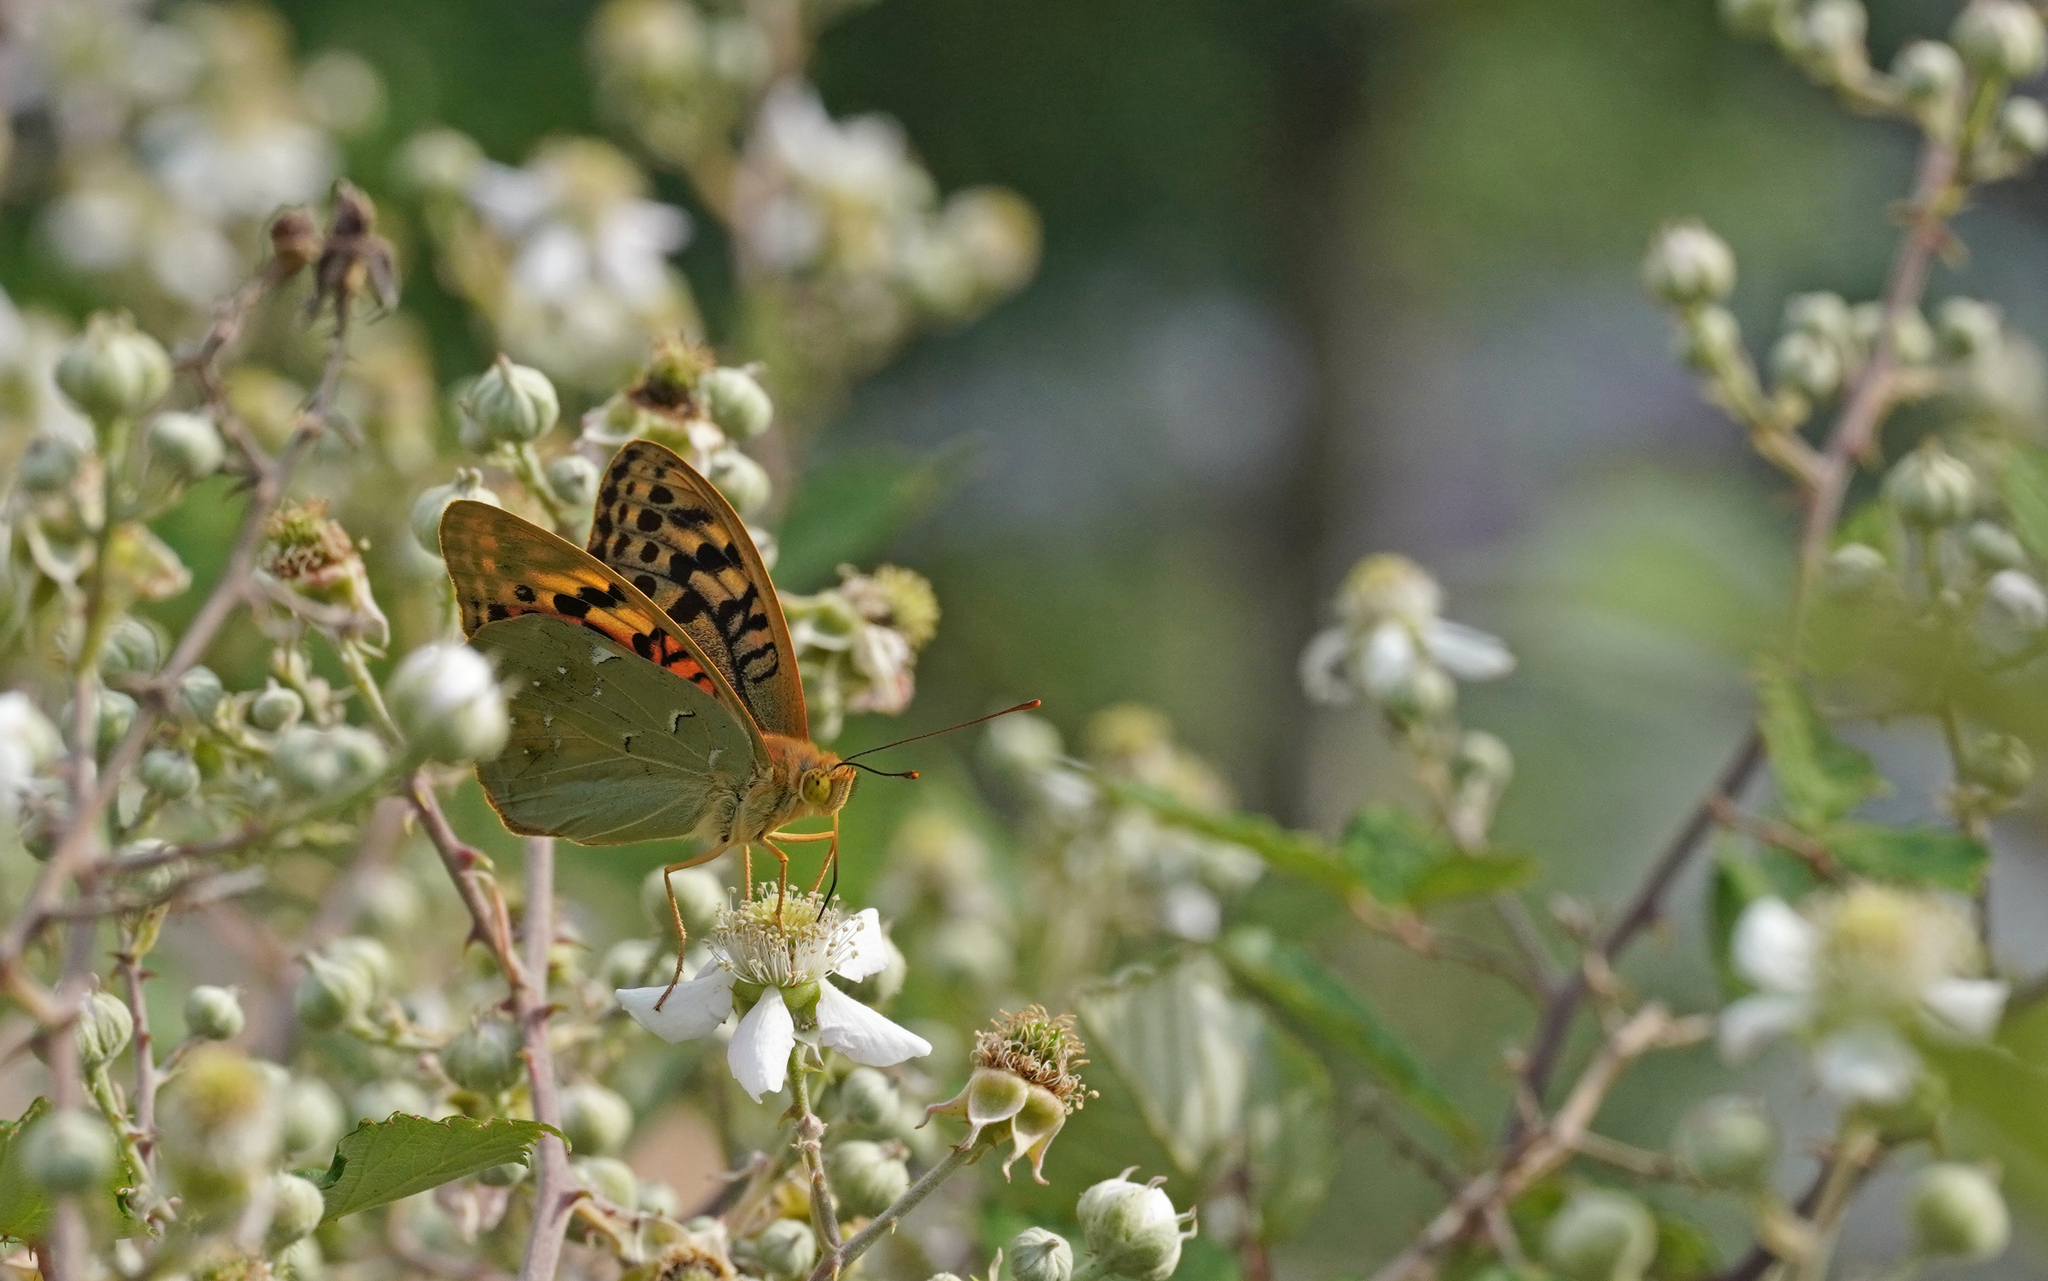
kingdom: Animalia
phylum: Arthropoda
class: Insecta
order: Lepidoptera
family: Nymphalidae
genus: Damora
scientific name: Damora pandora
